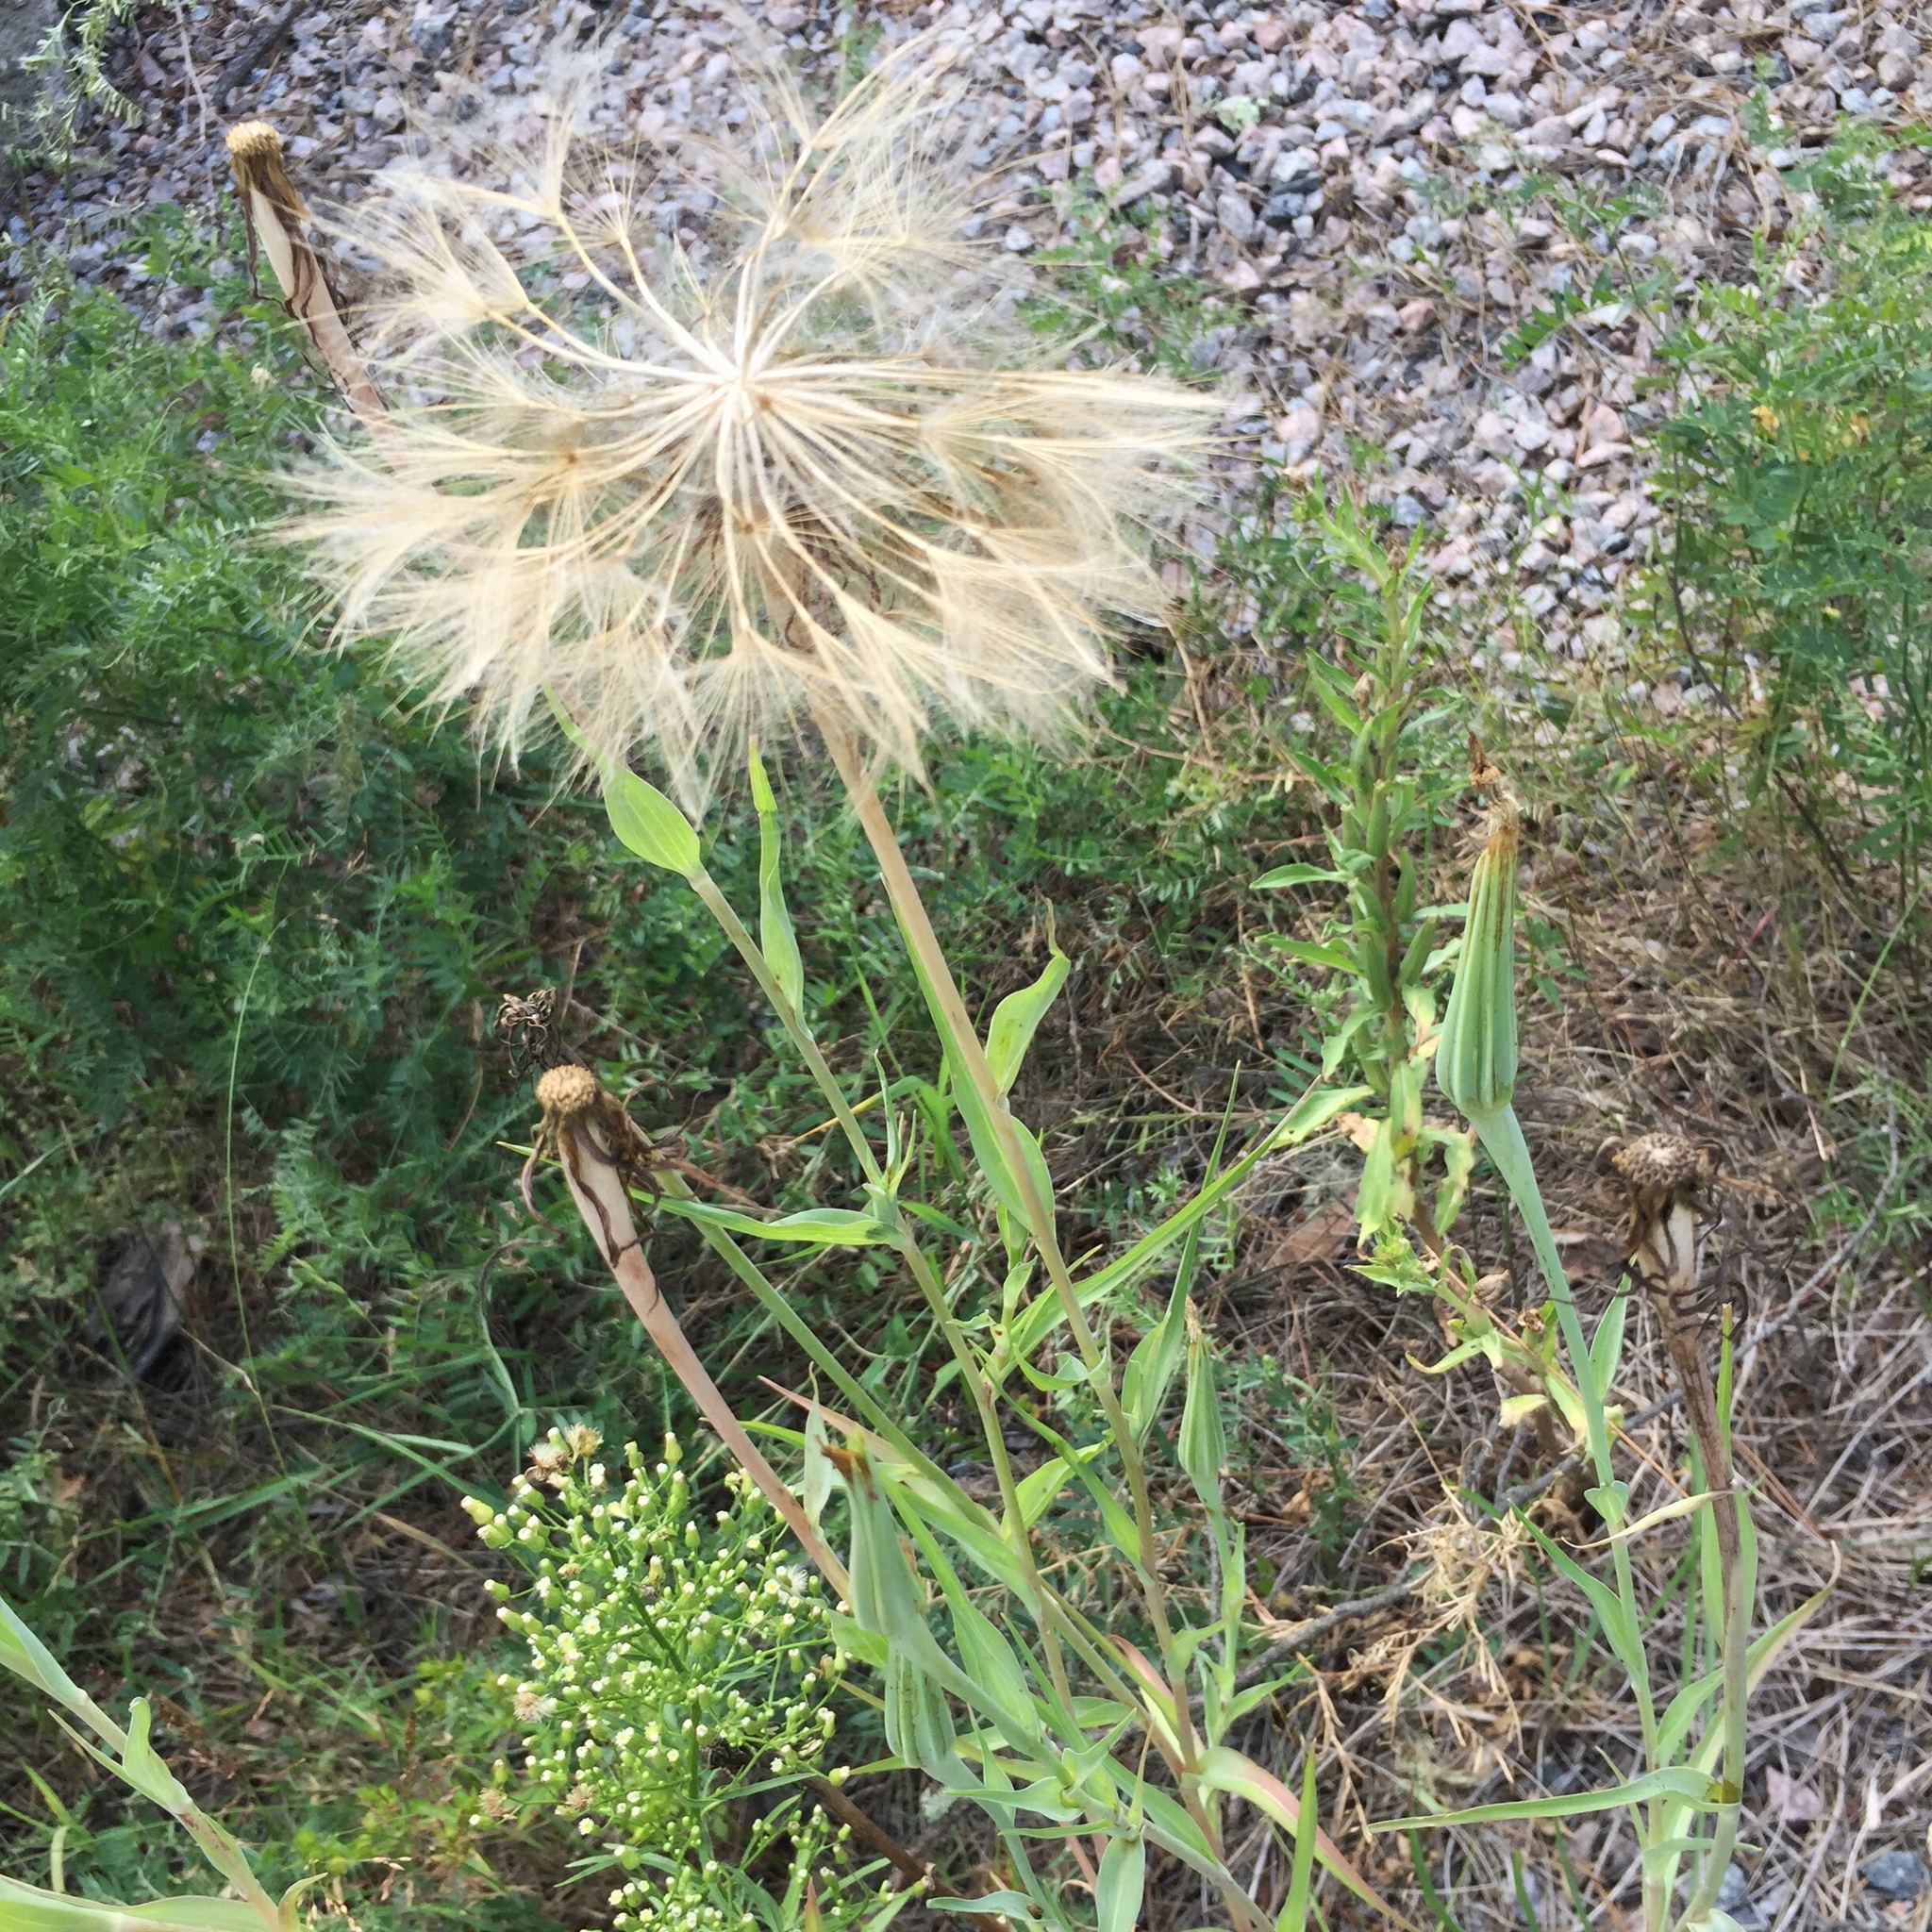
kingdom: Plantae
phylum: Tracheophyta
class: Magnoliopsida
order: Asterales
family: Asteraceae
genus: Tragopogon
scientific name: Tragopogon dubius
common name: Yellow salsify
